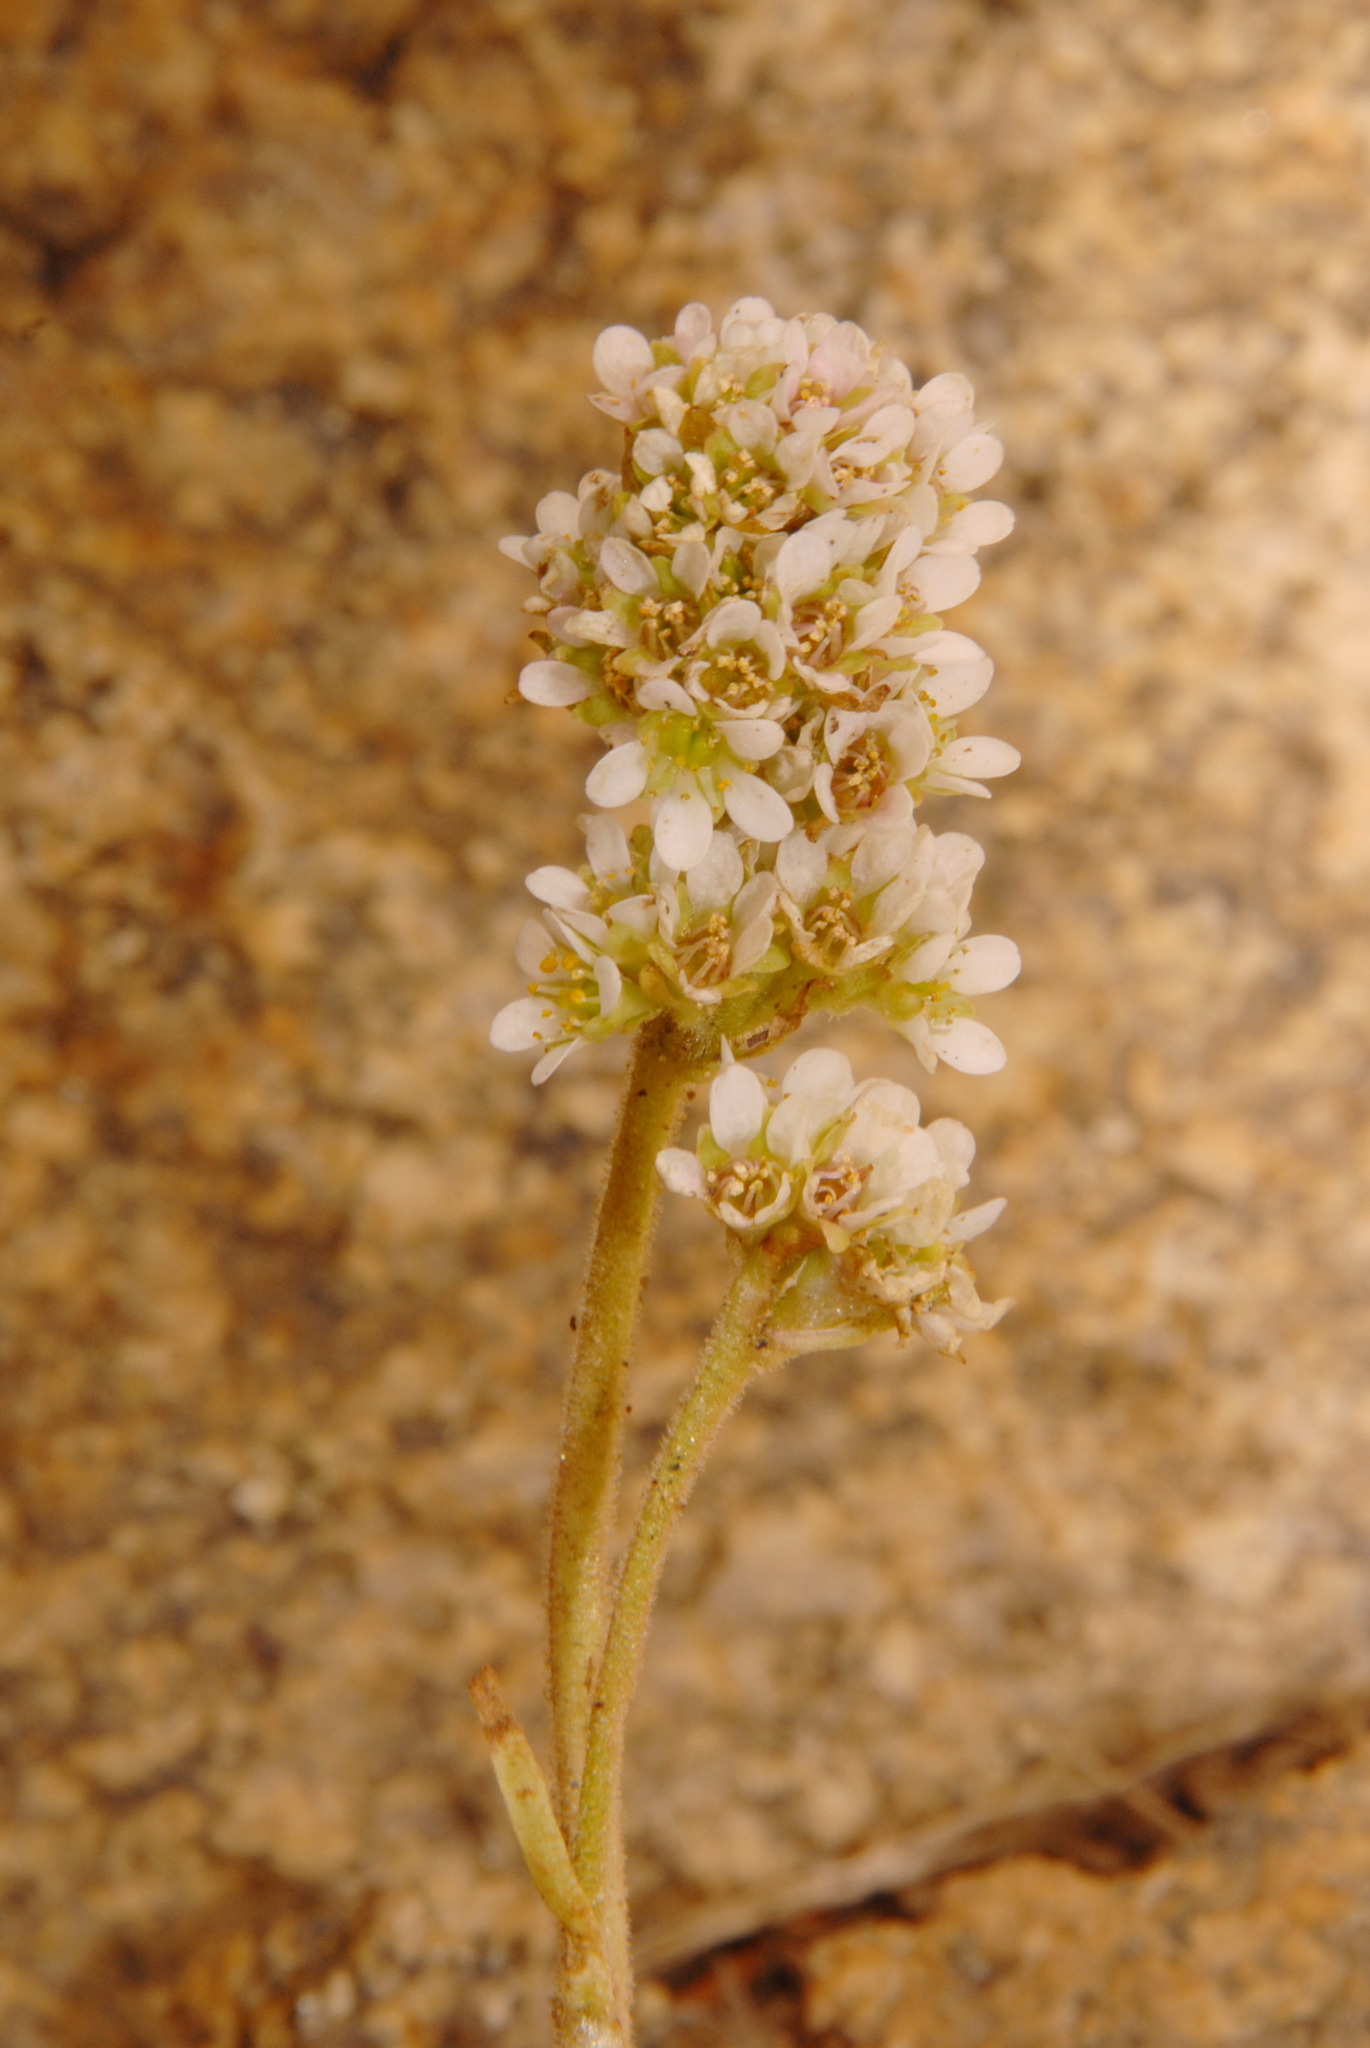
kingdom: Plantae
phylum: Tracheophyta
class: Magnoliopsida
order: Saxifragales
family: Saxifragaceae
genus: Micranthes
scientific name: Micranthes rhomboidea
